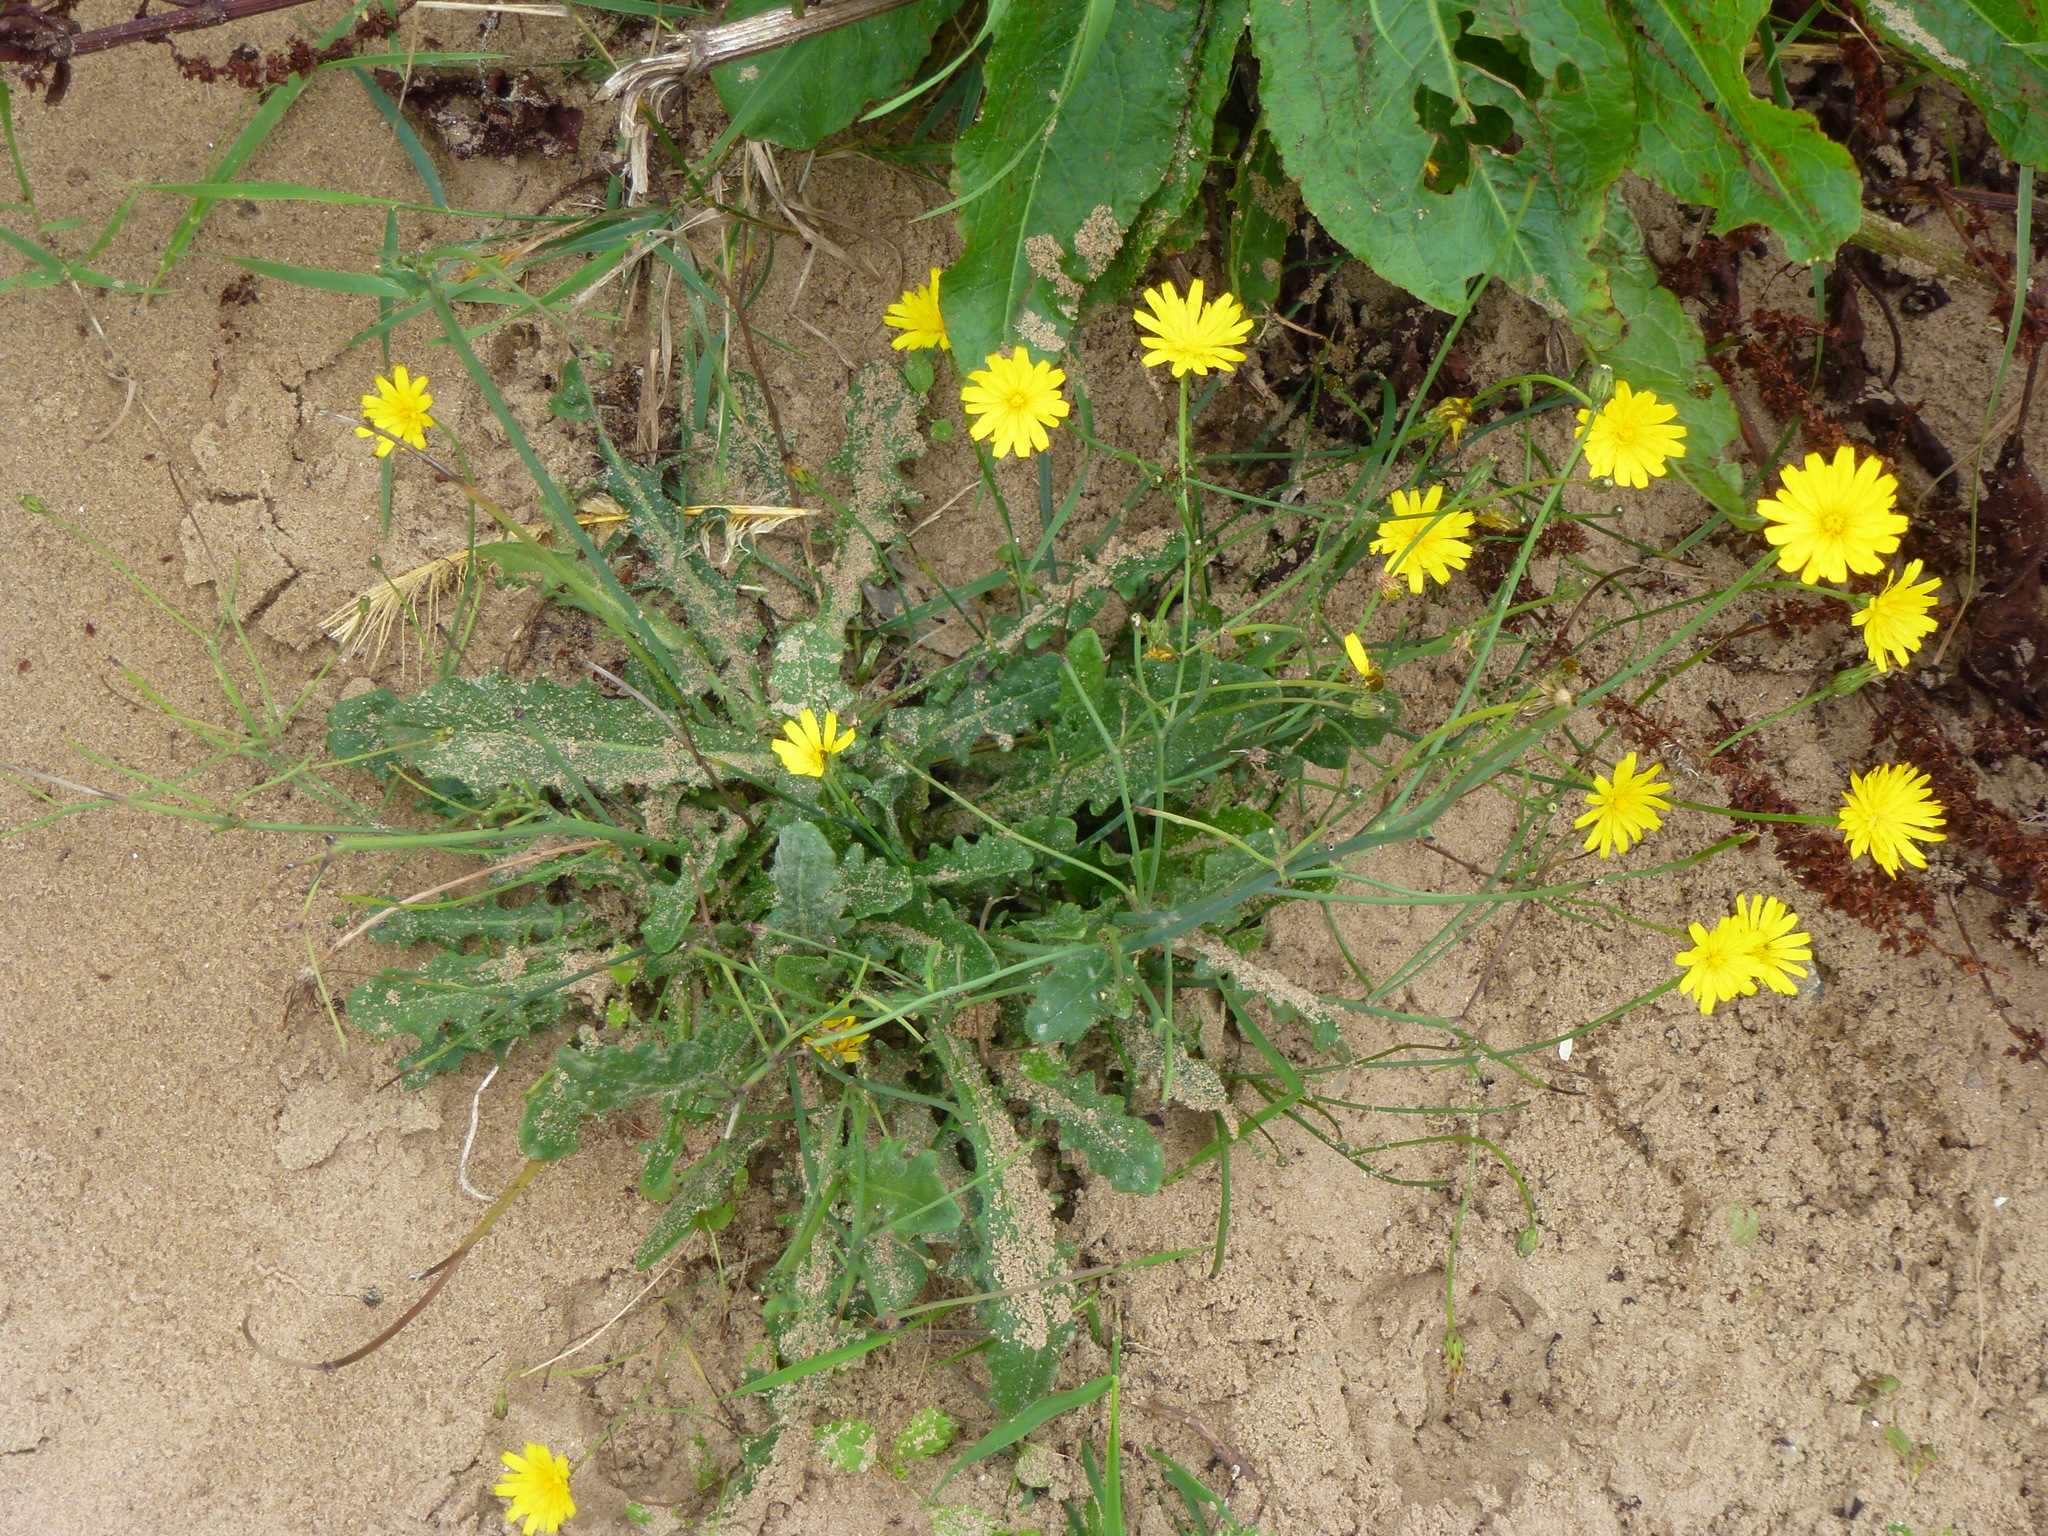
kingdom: Plantae
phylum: Tracheophyta
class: Magnoliopsida
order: Asterales
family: Asteraceae
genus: Hypochaeris
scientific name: Hypochaeris radicata
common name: Flatweed
